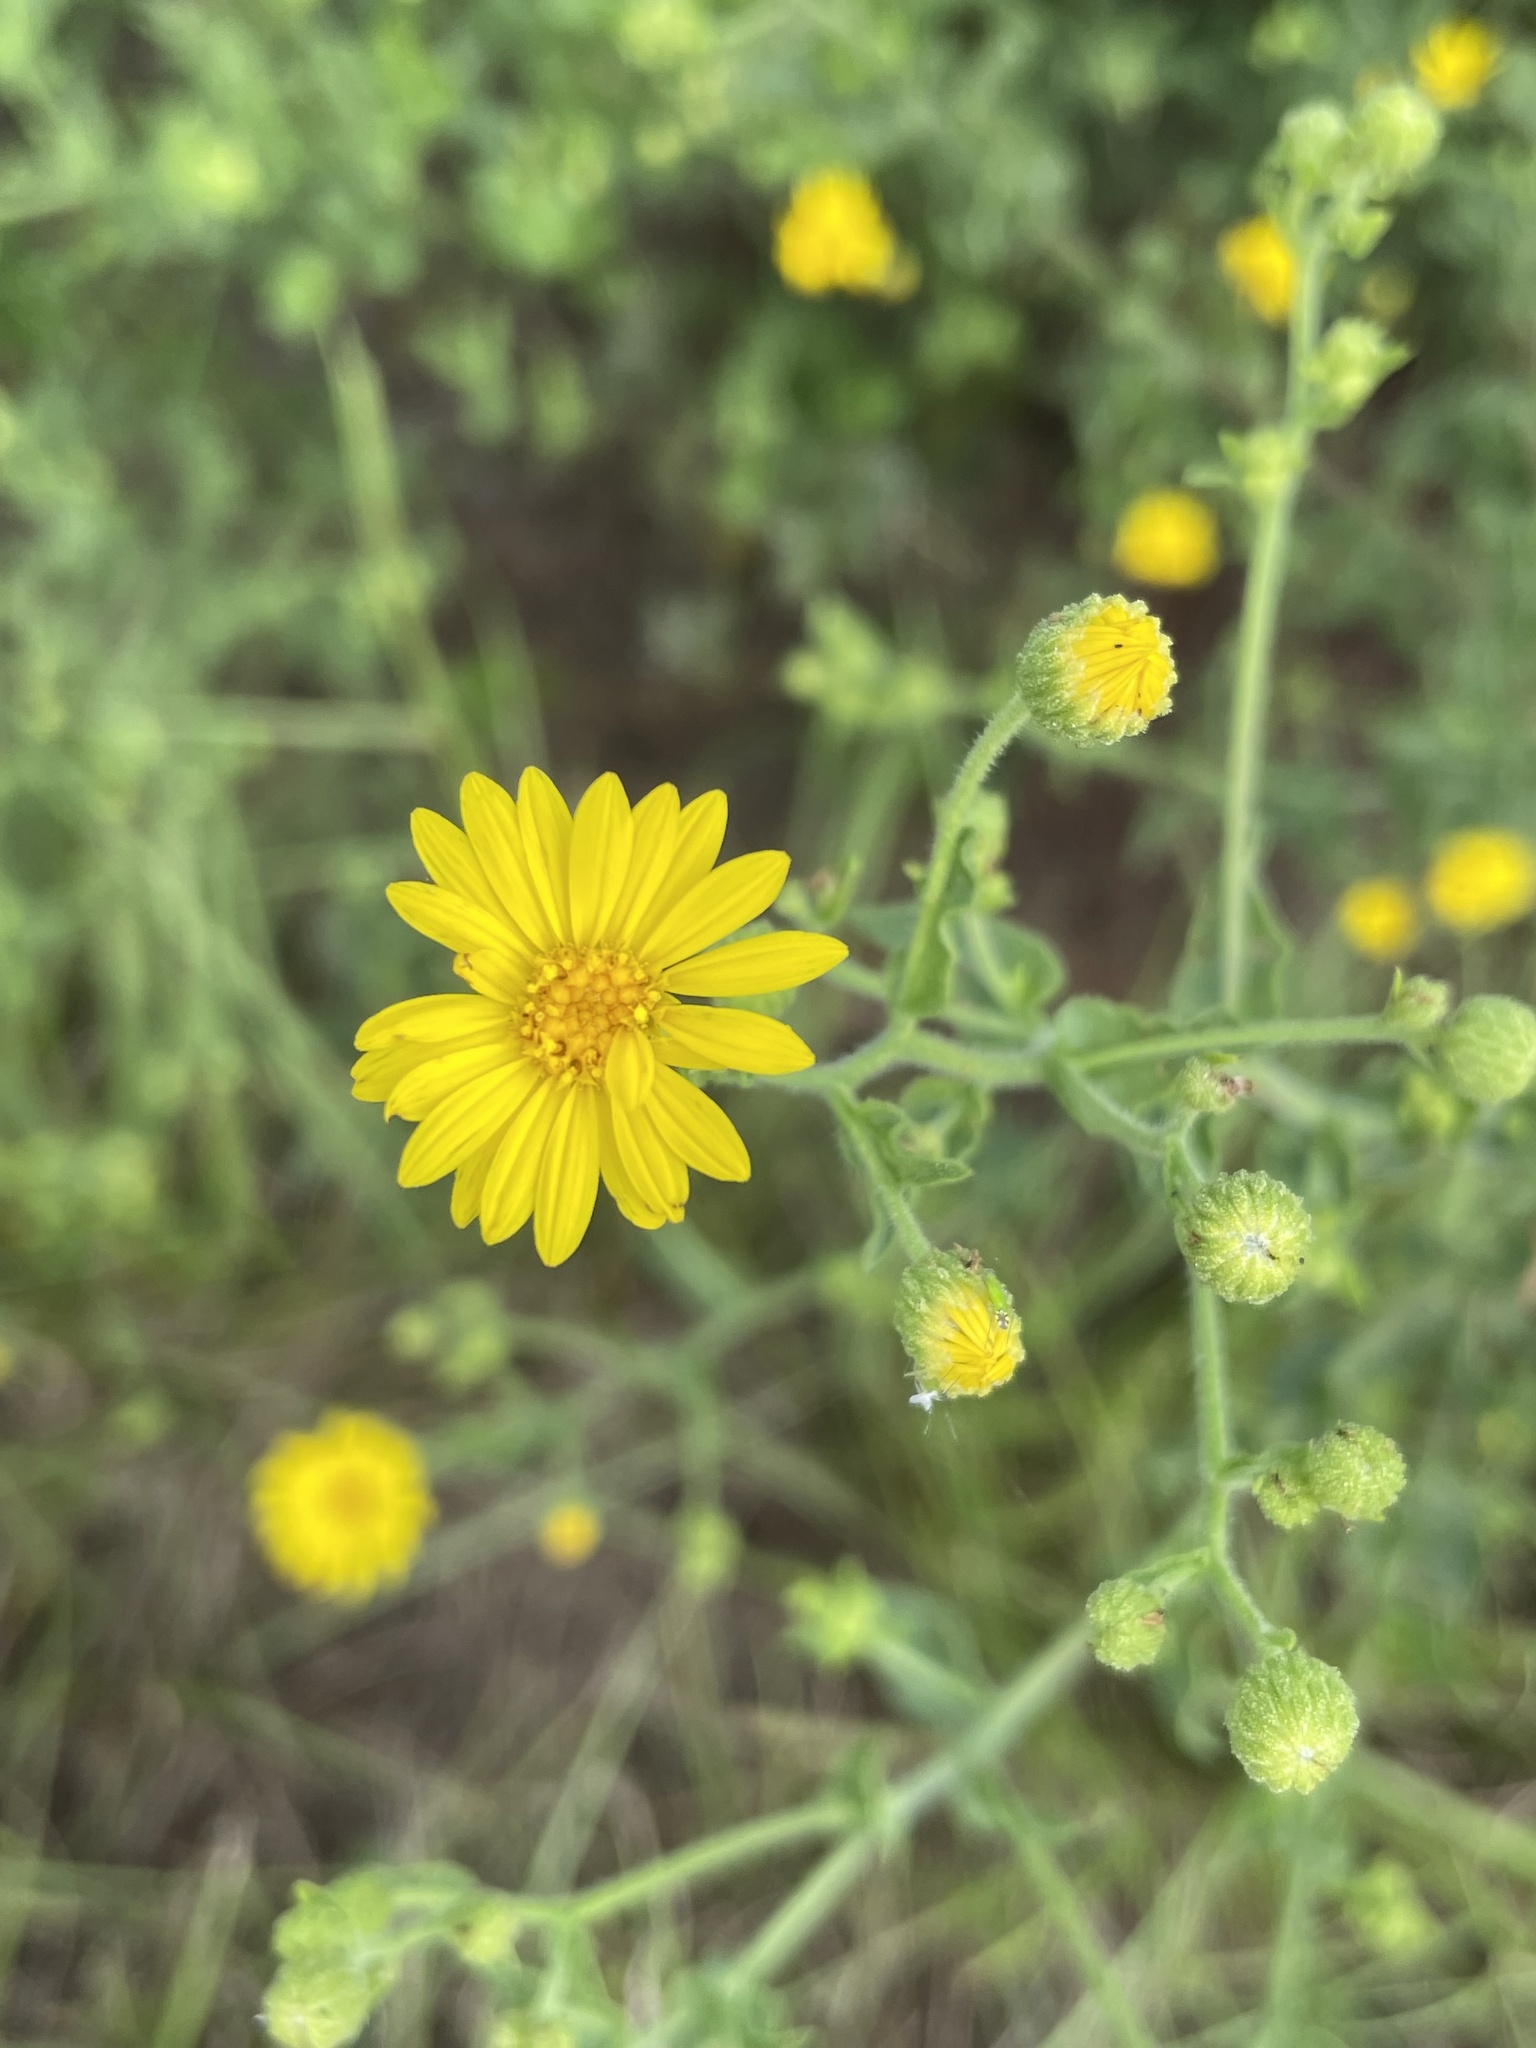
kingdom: Plantae
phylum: Tracheophyta
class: Magnoliopsida
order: Asterales
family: Asteraceae
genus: Heterotheca
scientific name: Heterotheca subaxillaris
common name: Camphorweed
